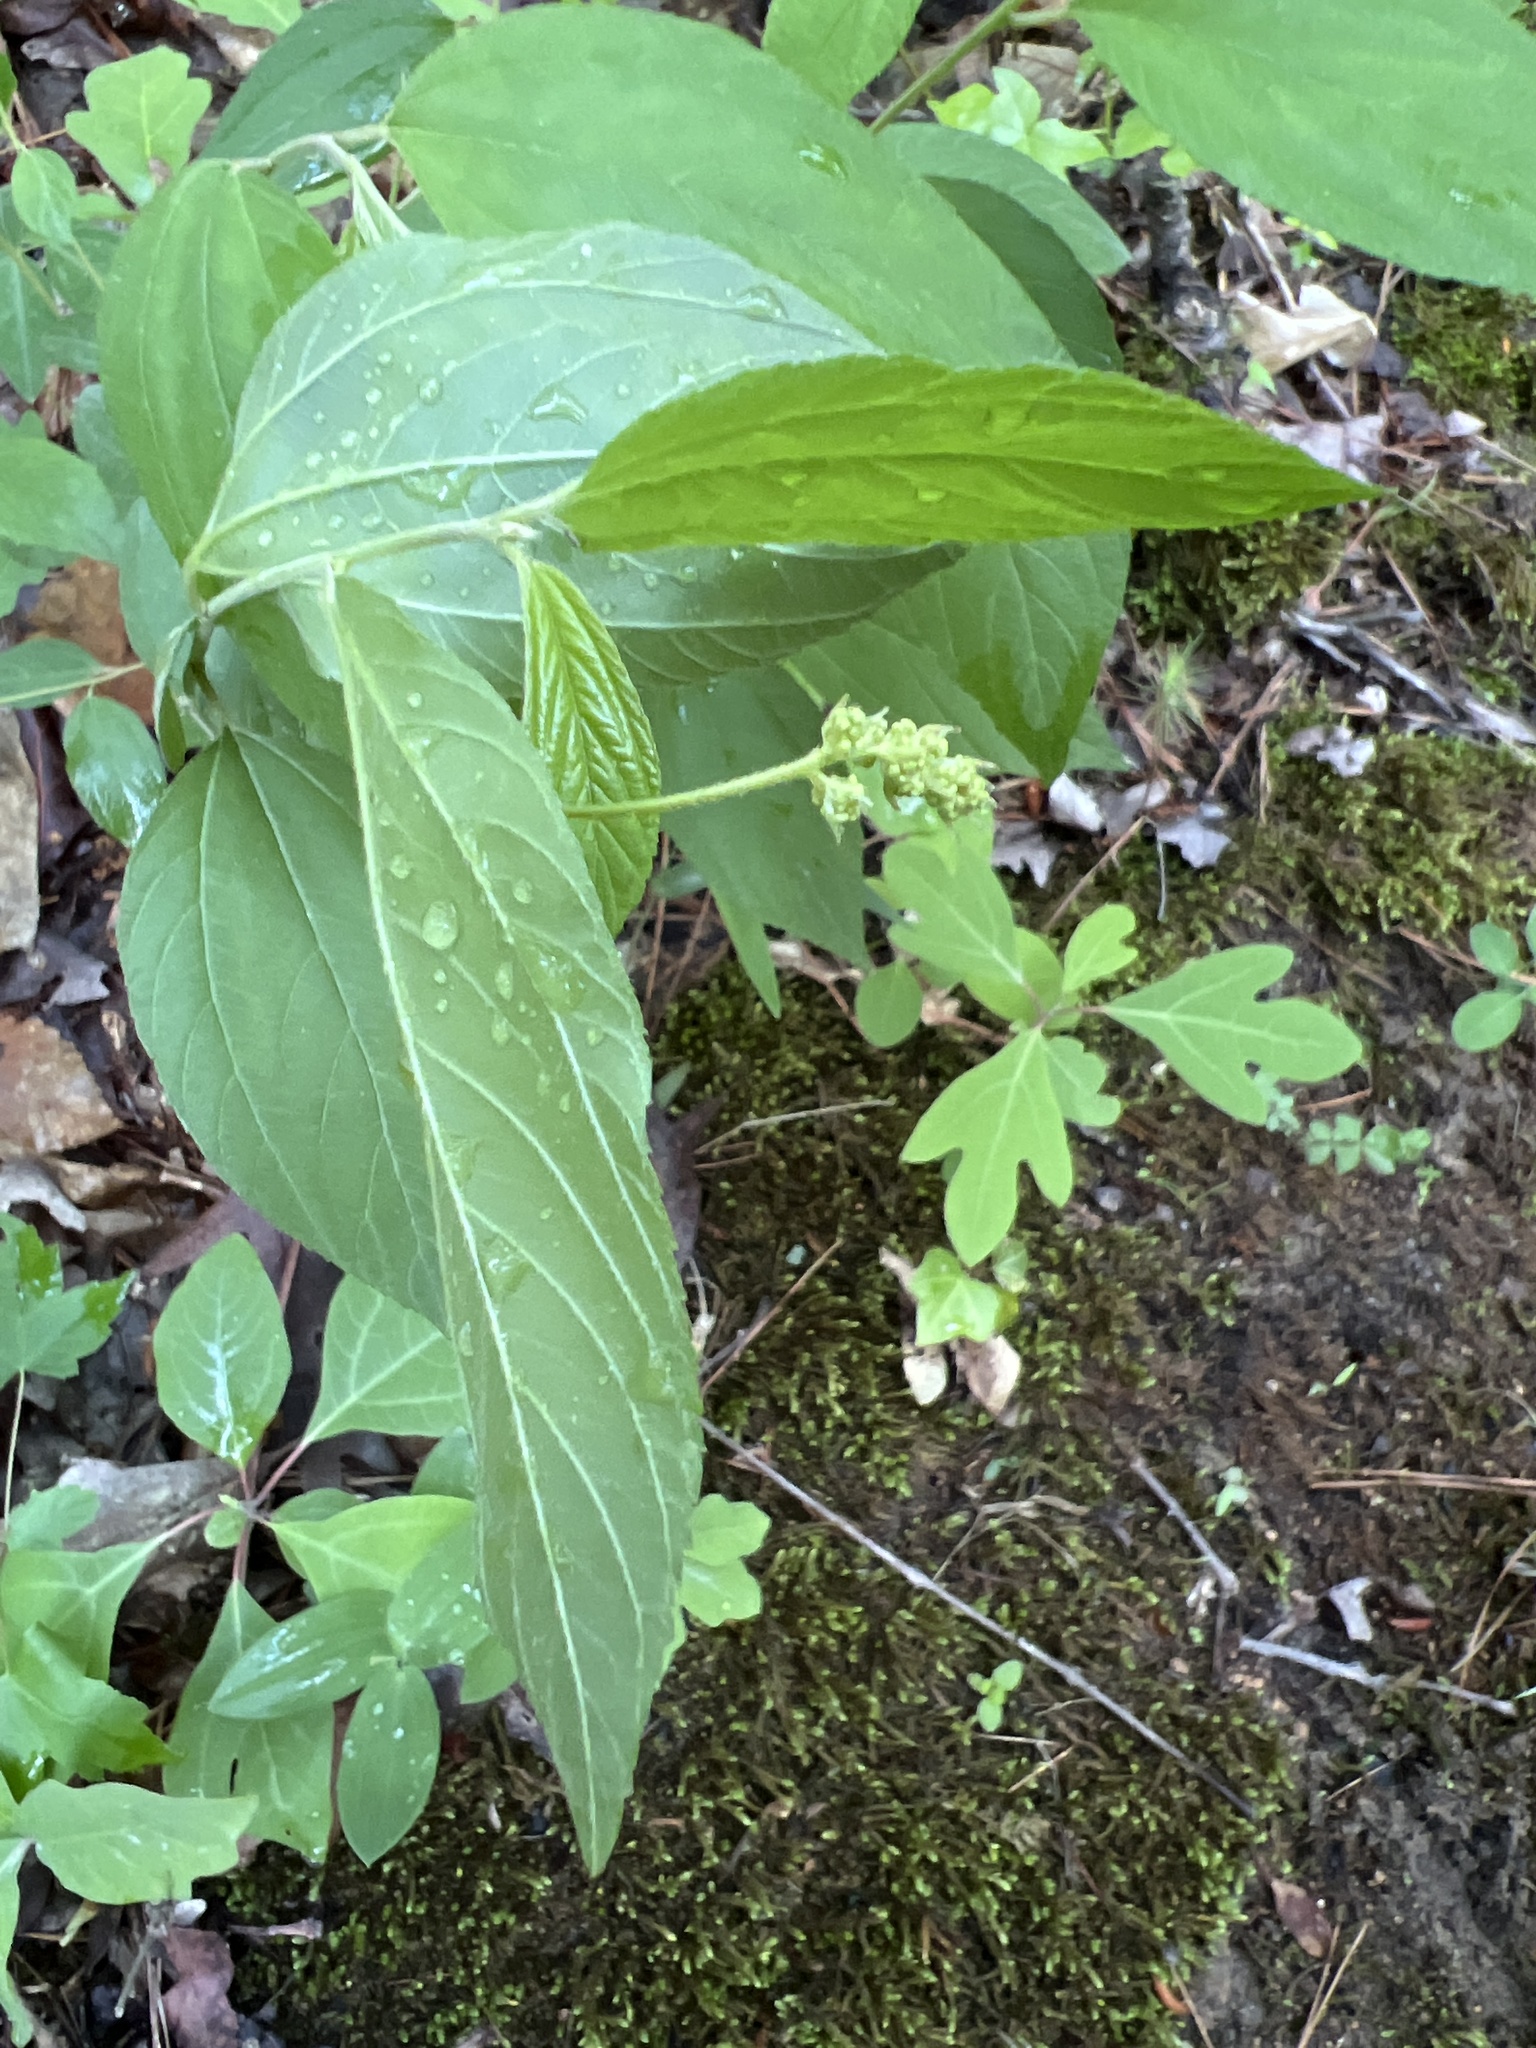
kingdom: Plantae
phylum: Tracheophyta
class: Magnoliopsida
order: Rosales
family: Rhamnaceae
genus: Ceanothus
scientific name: Ceanothus americanus
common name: Redroot
